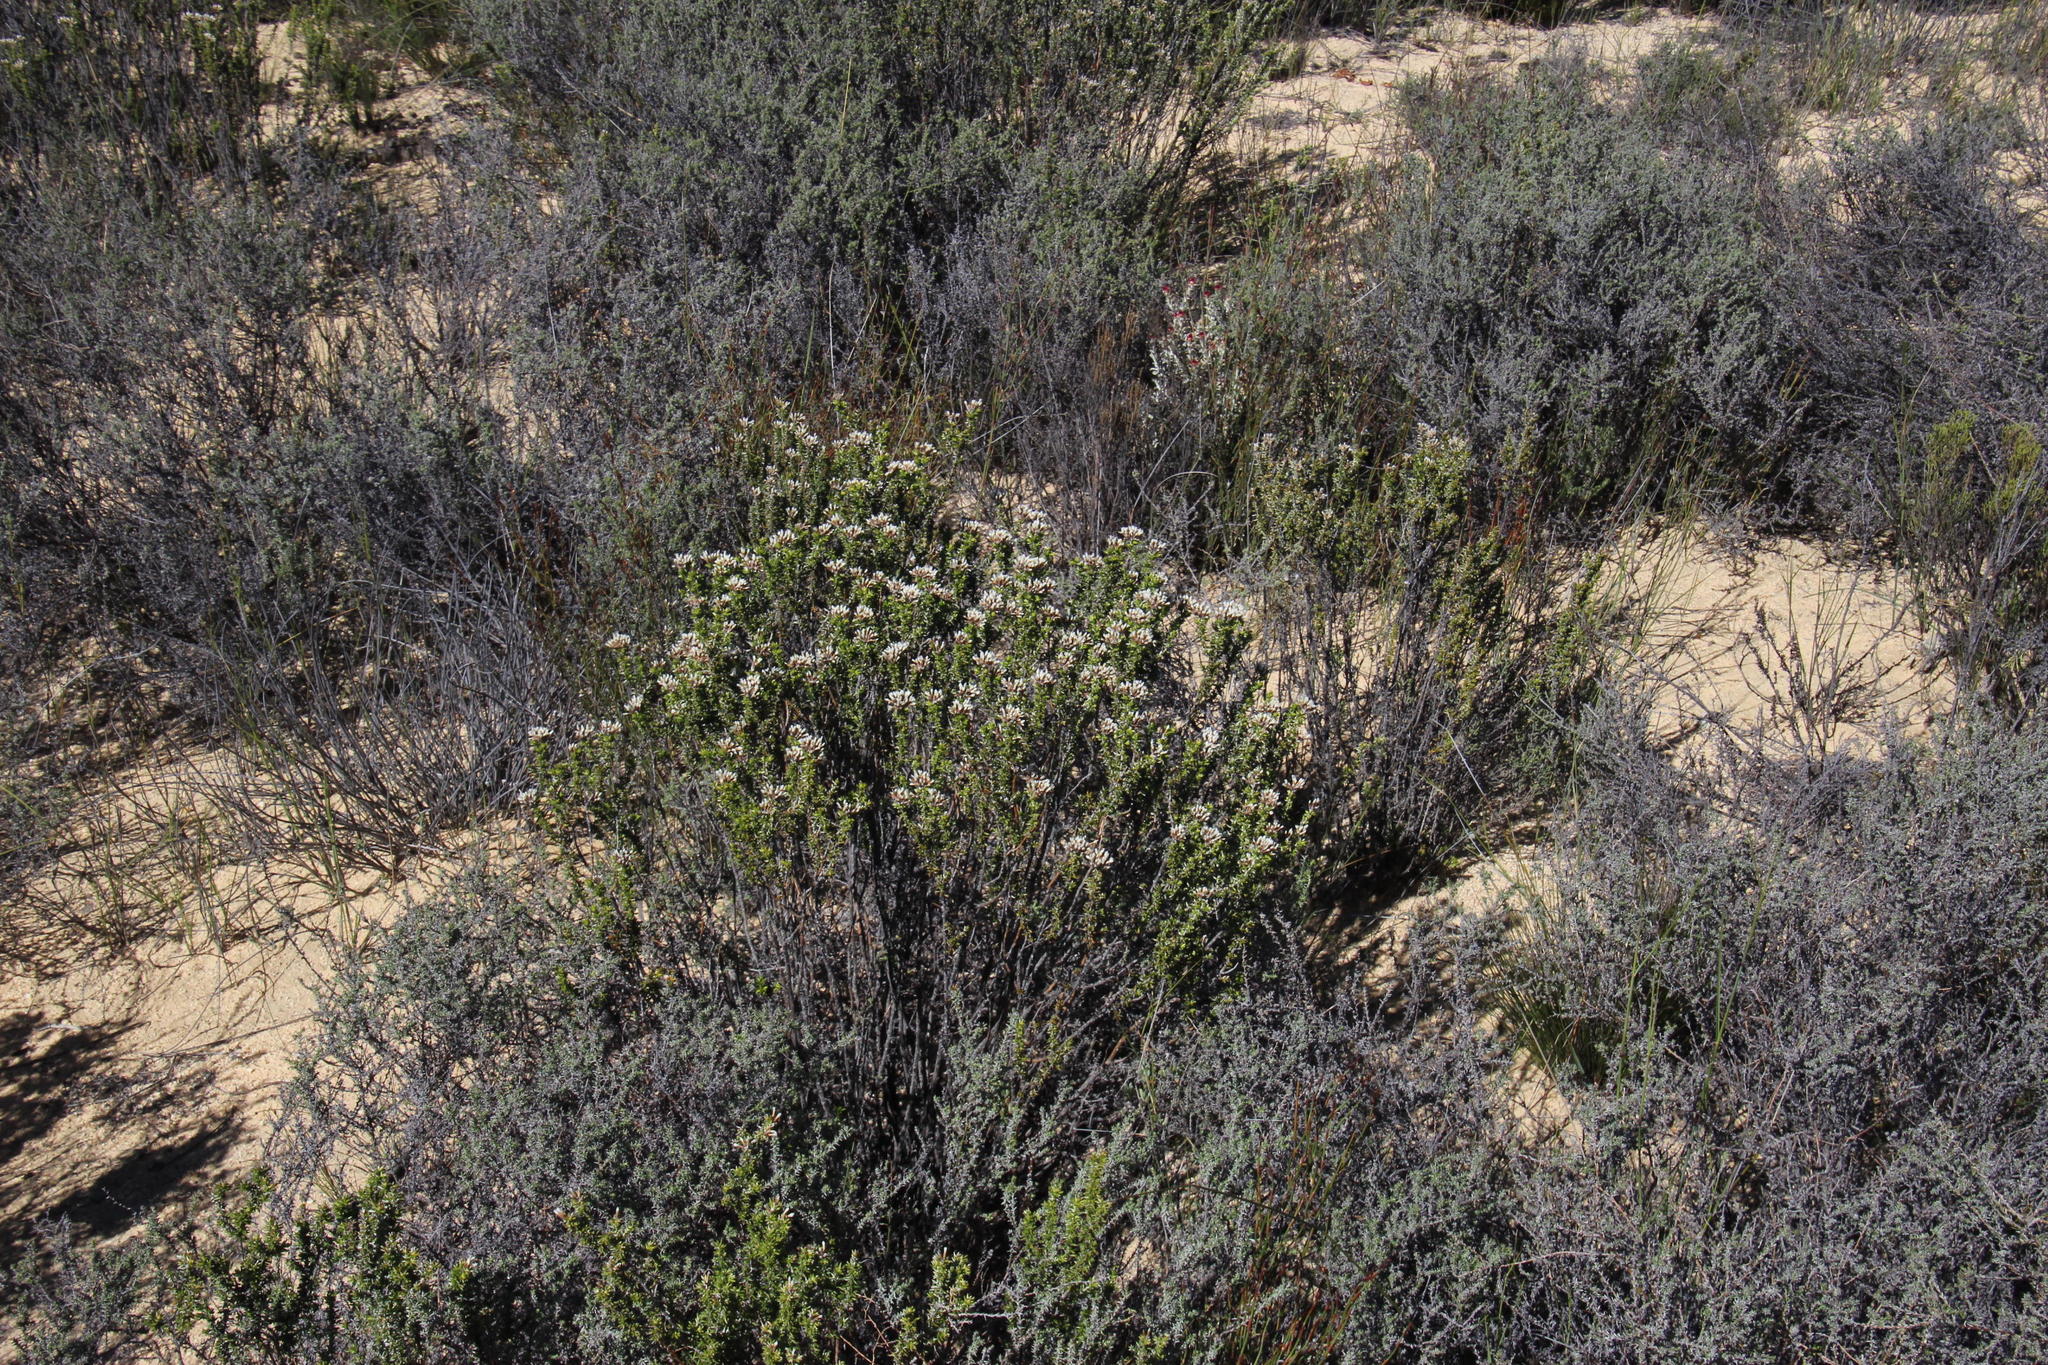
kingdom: Plantae
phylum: Tracheophyta
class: Magnoliopsida
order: Asterales
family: Asteraceae
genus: Metalasia
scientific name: Metalasia densa
